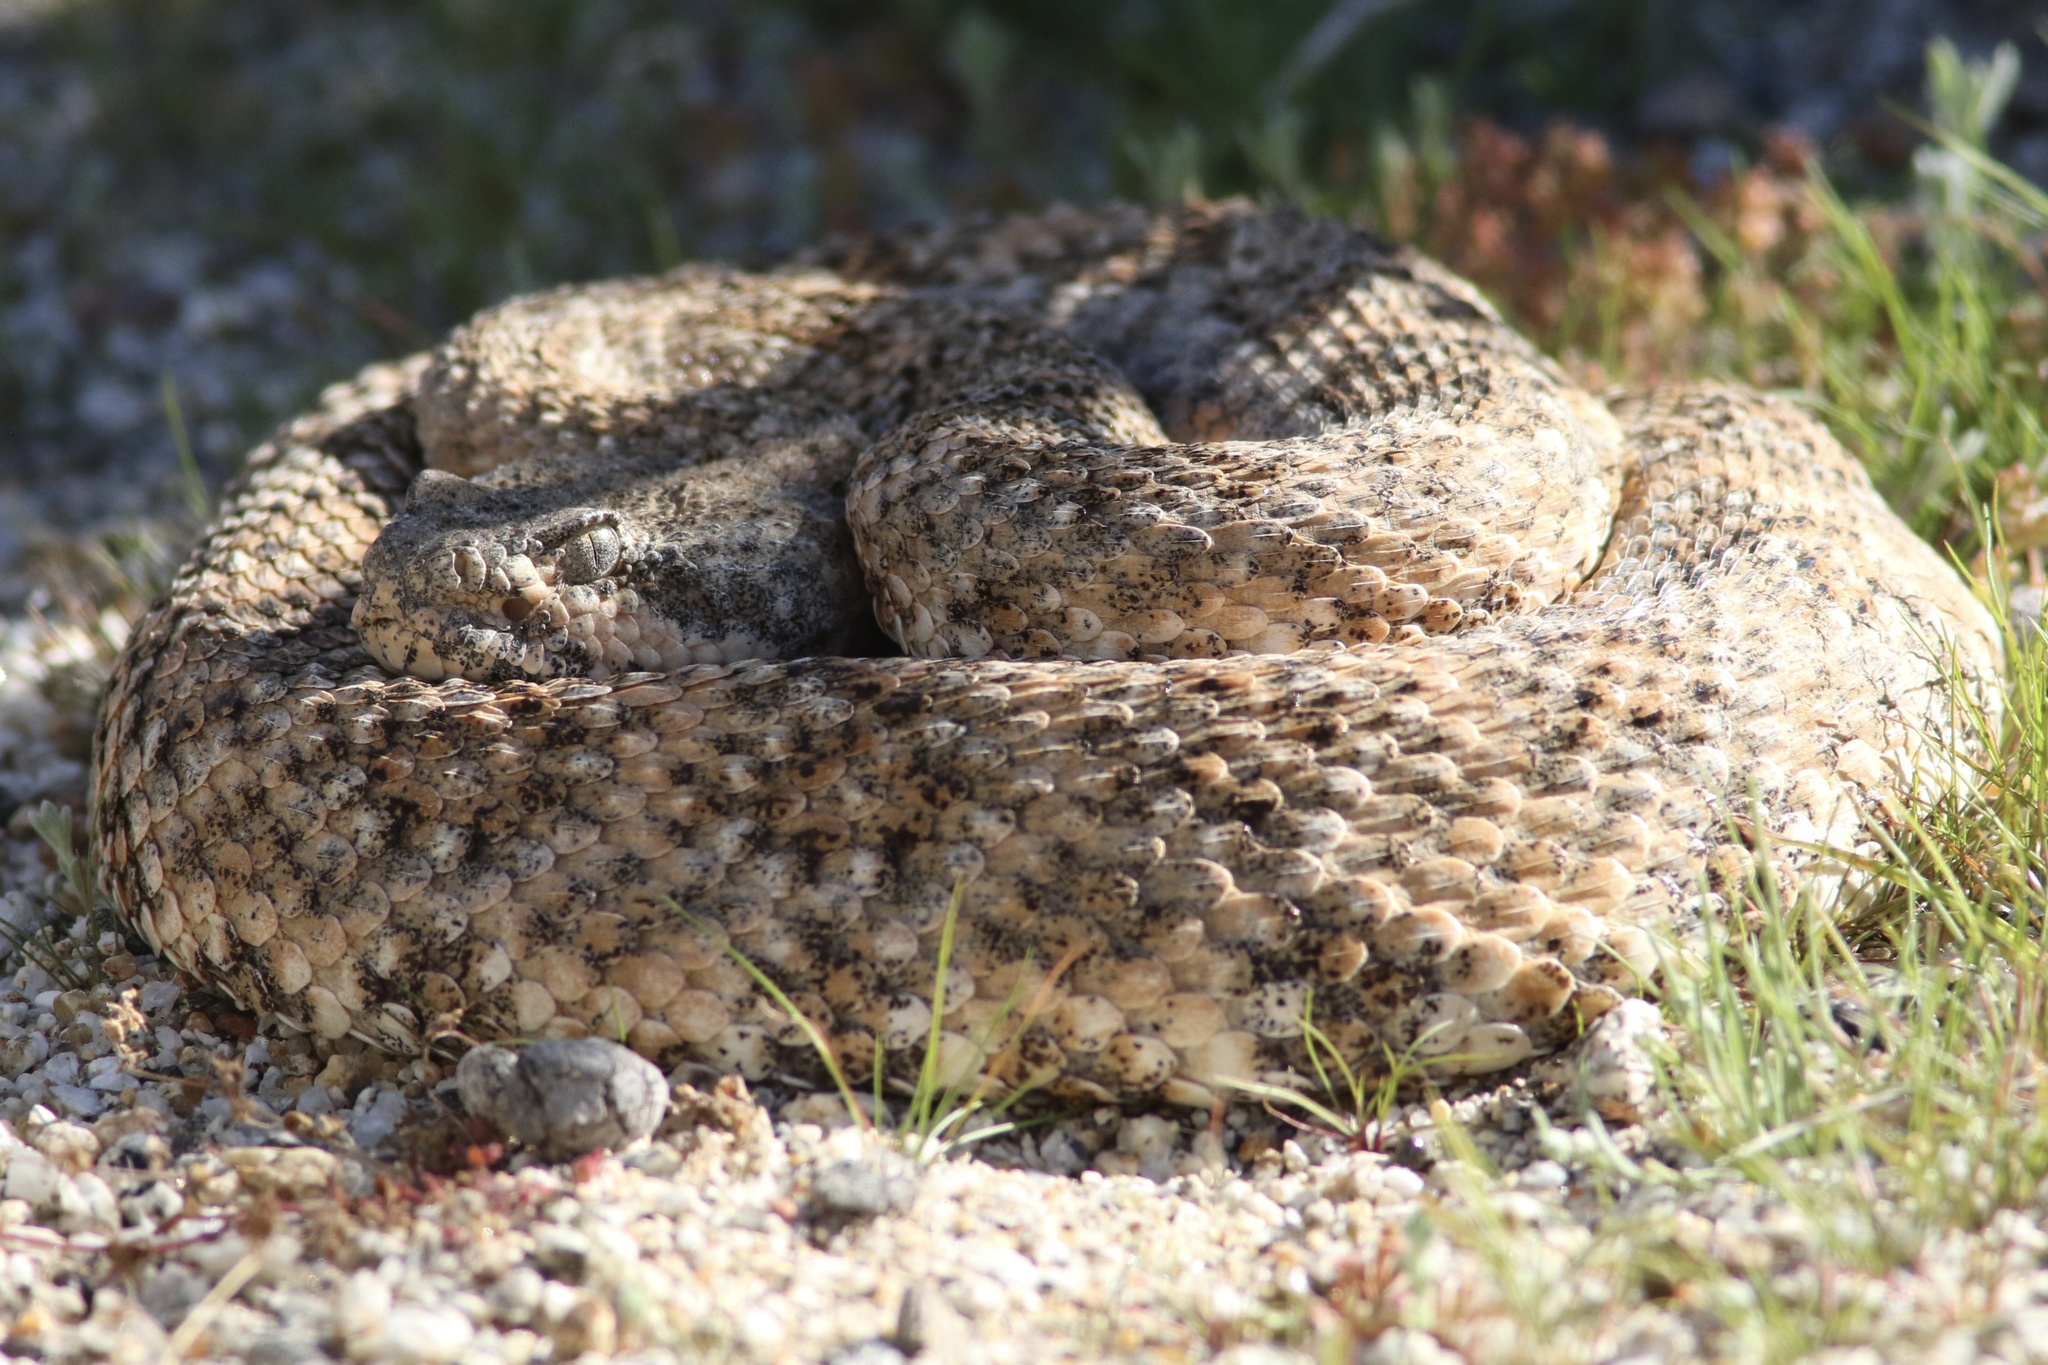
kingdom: Animalia
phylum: Chordata
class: Squamata
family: Viperidae
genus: Crotalus
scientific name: Crotalus pyrrhus
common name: Southwestern speckled rattlesnake
